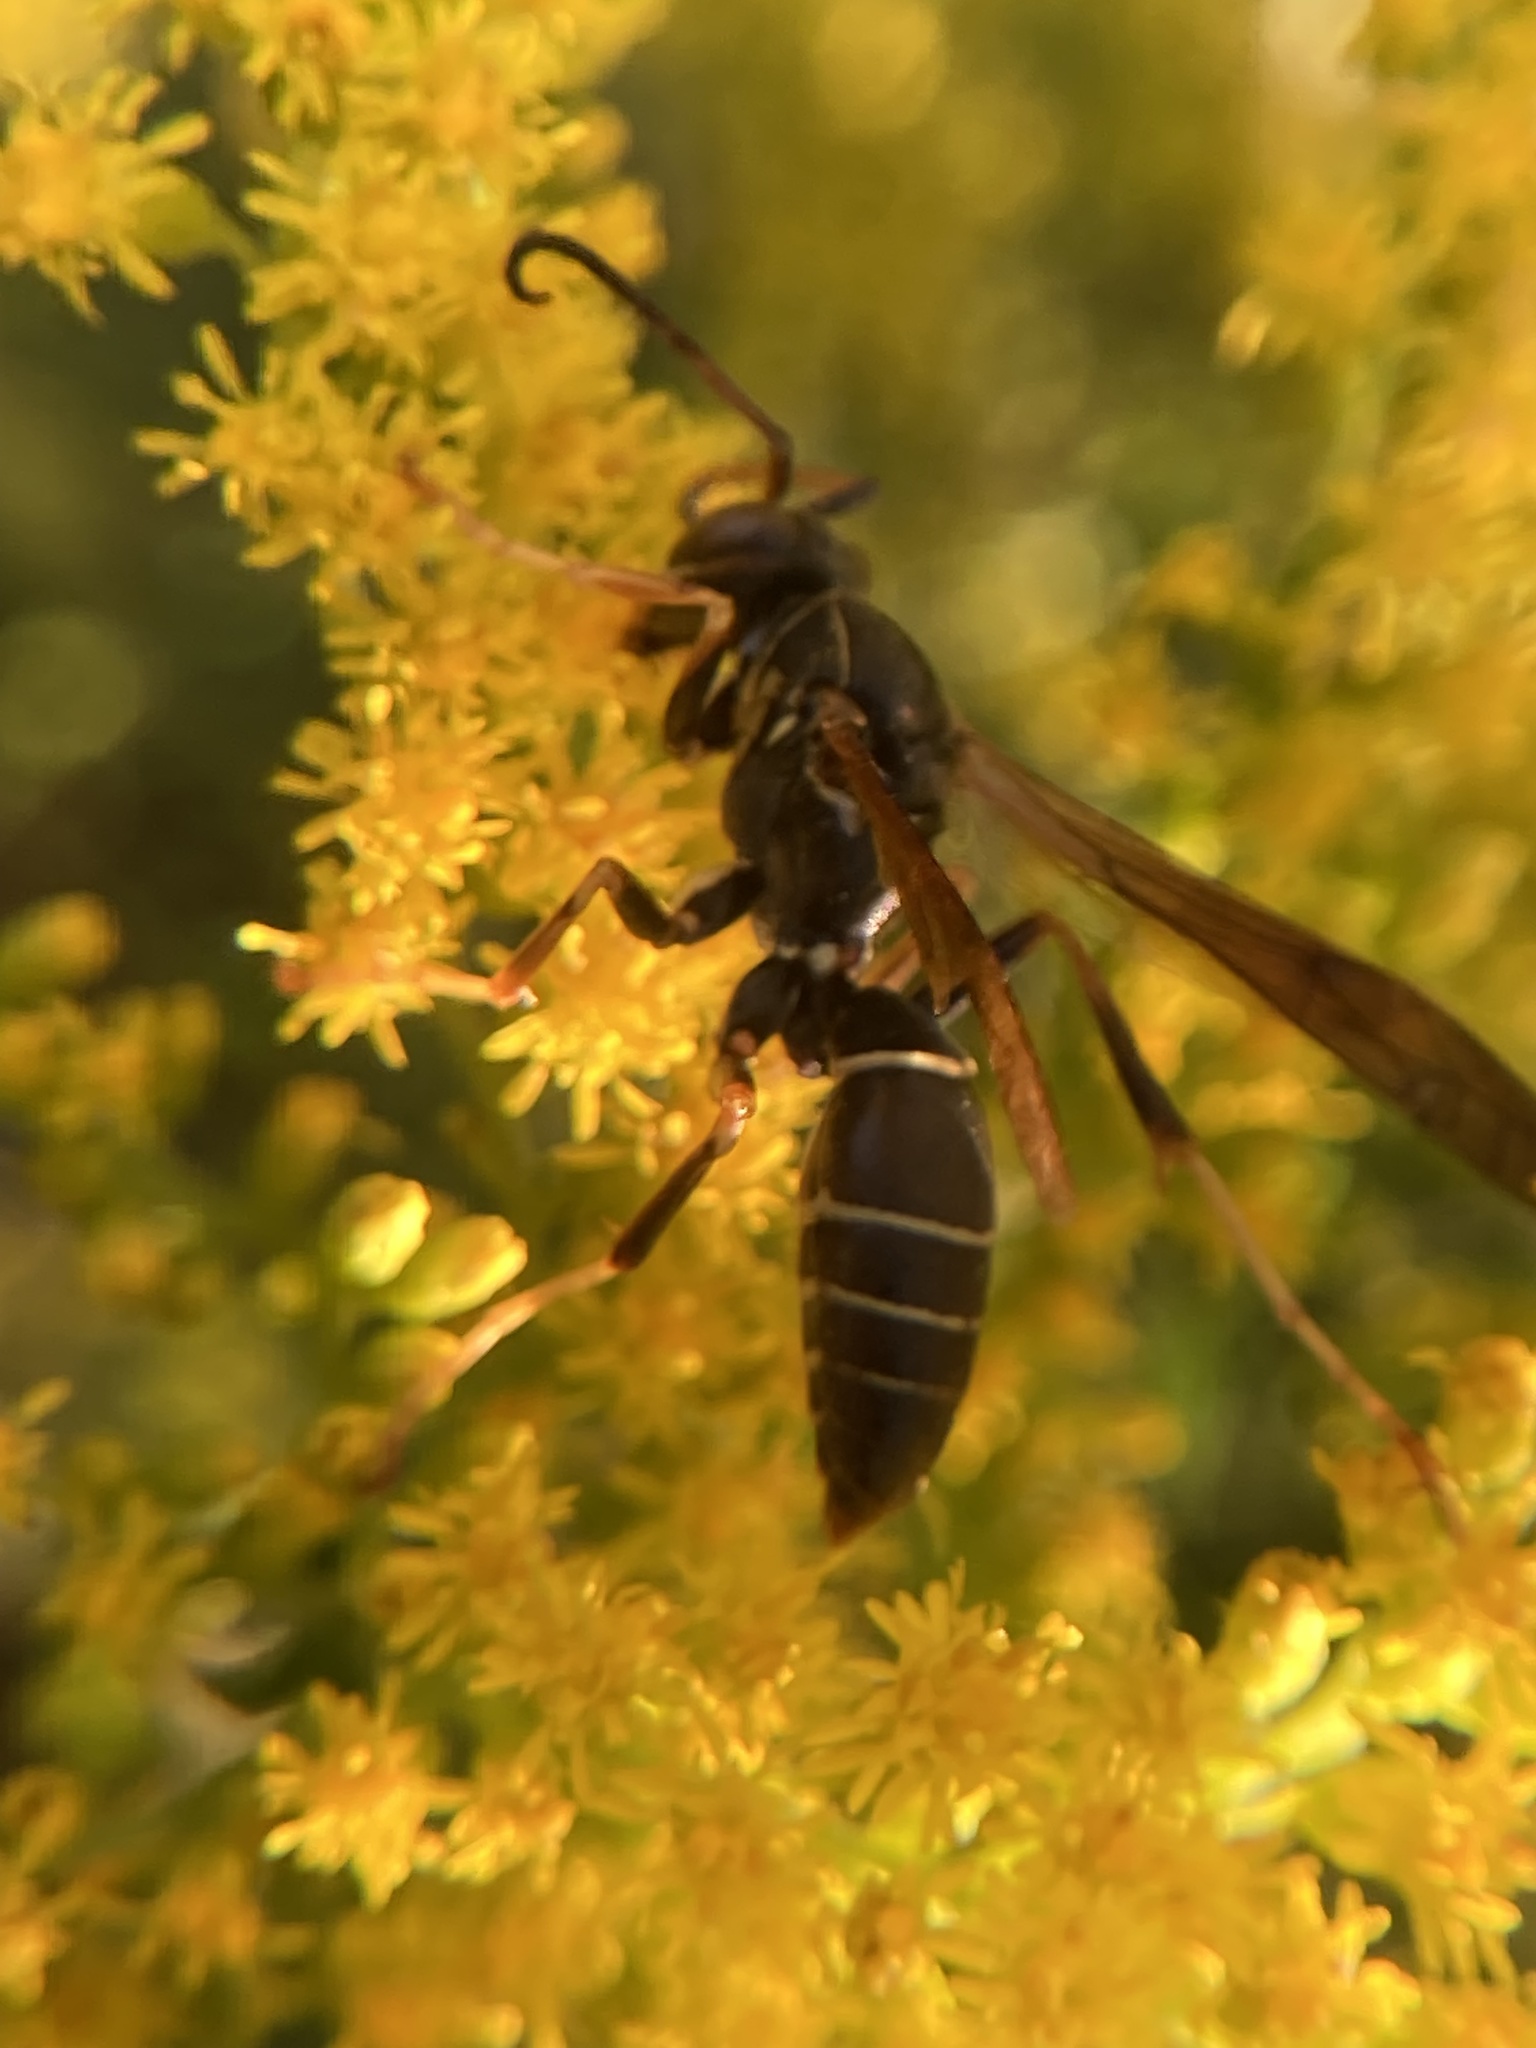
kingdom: Animalia
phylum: Arthropoda
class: Insecta
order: Hymenoptera
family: Eumenidae
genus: Polistes
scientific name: Polistes fuscatus
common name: Dark paper wasp
